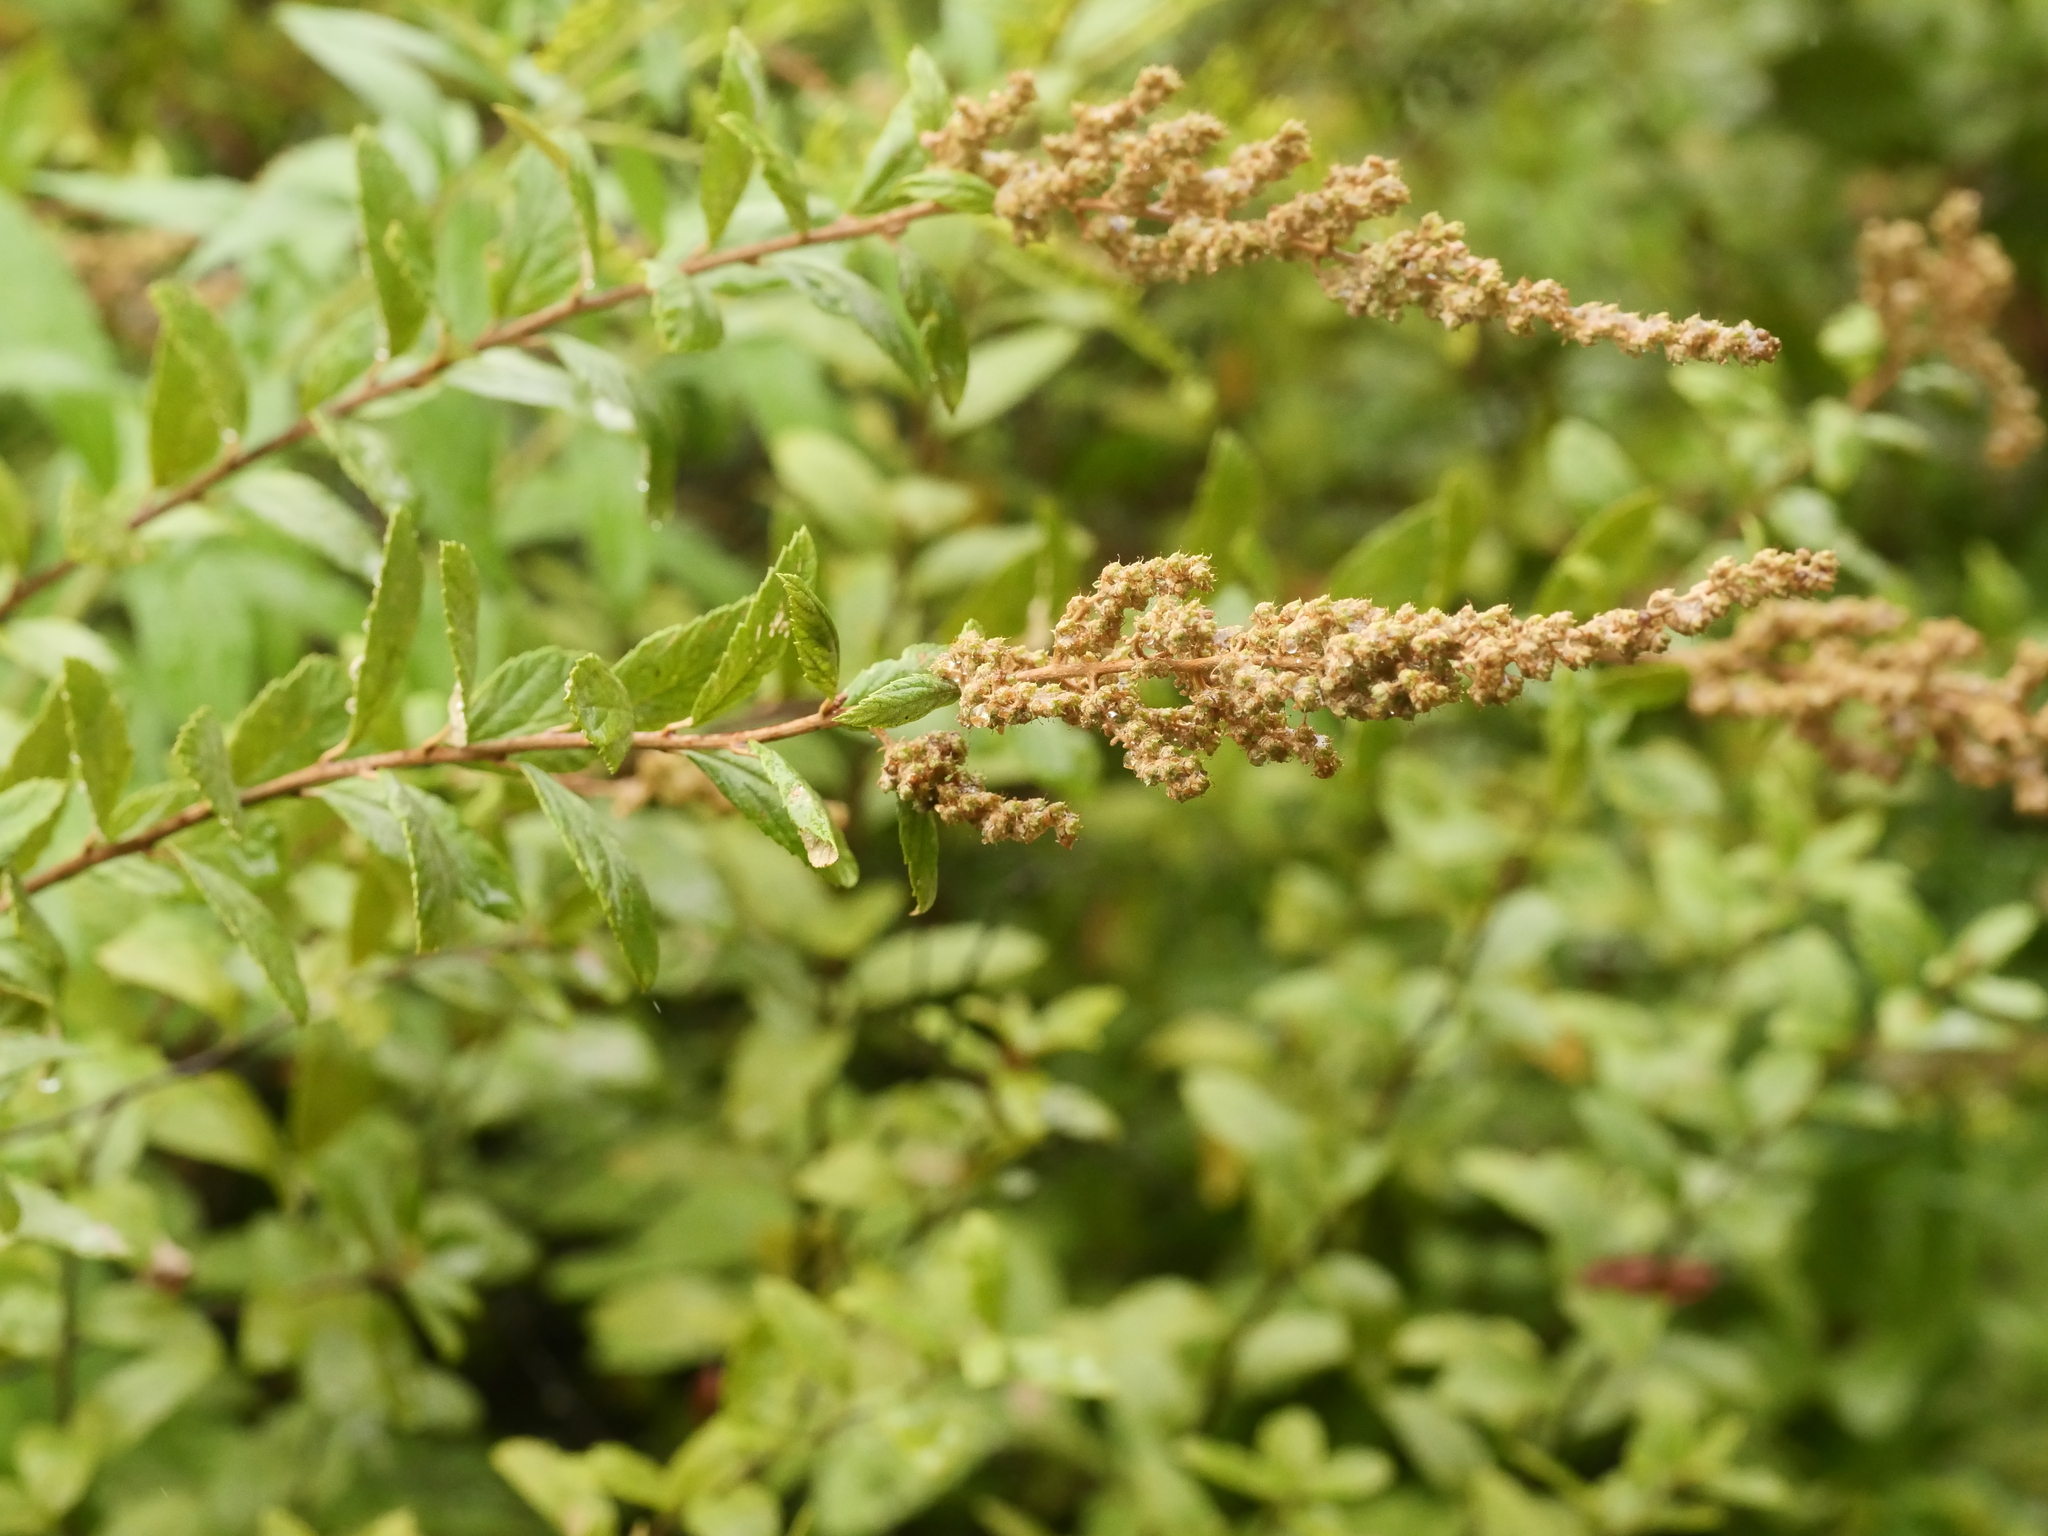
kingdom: Plantae
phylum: Tracheophyta
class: Magnoliopsida
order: Rosales
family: Rosaceae
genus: Spiraea
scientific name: Spiraea tomentosa
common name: Hardhack
